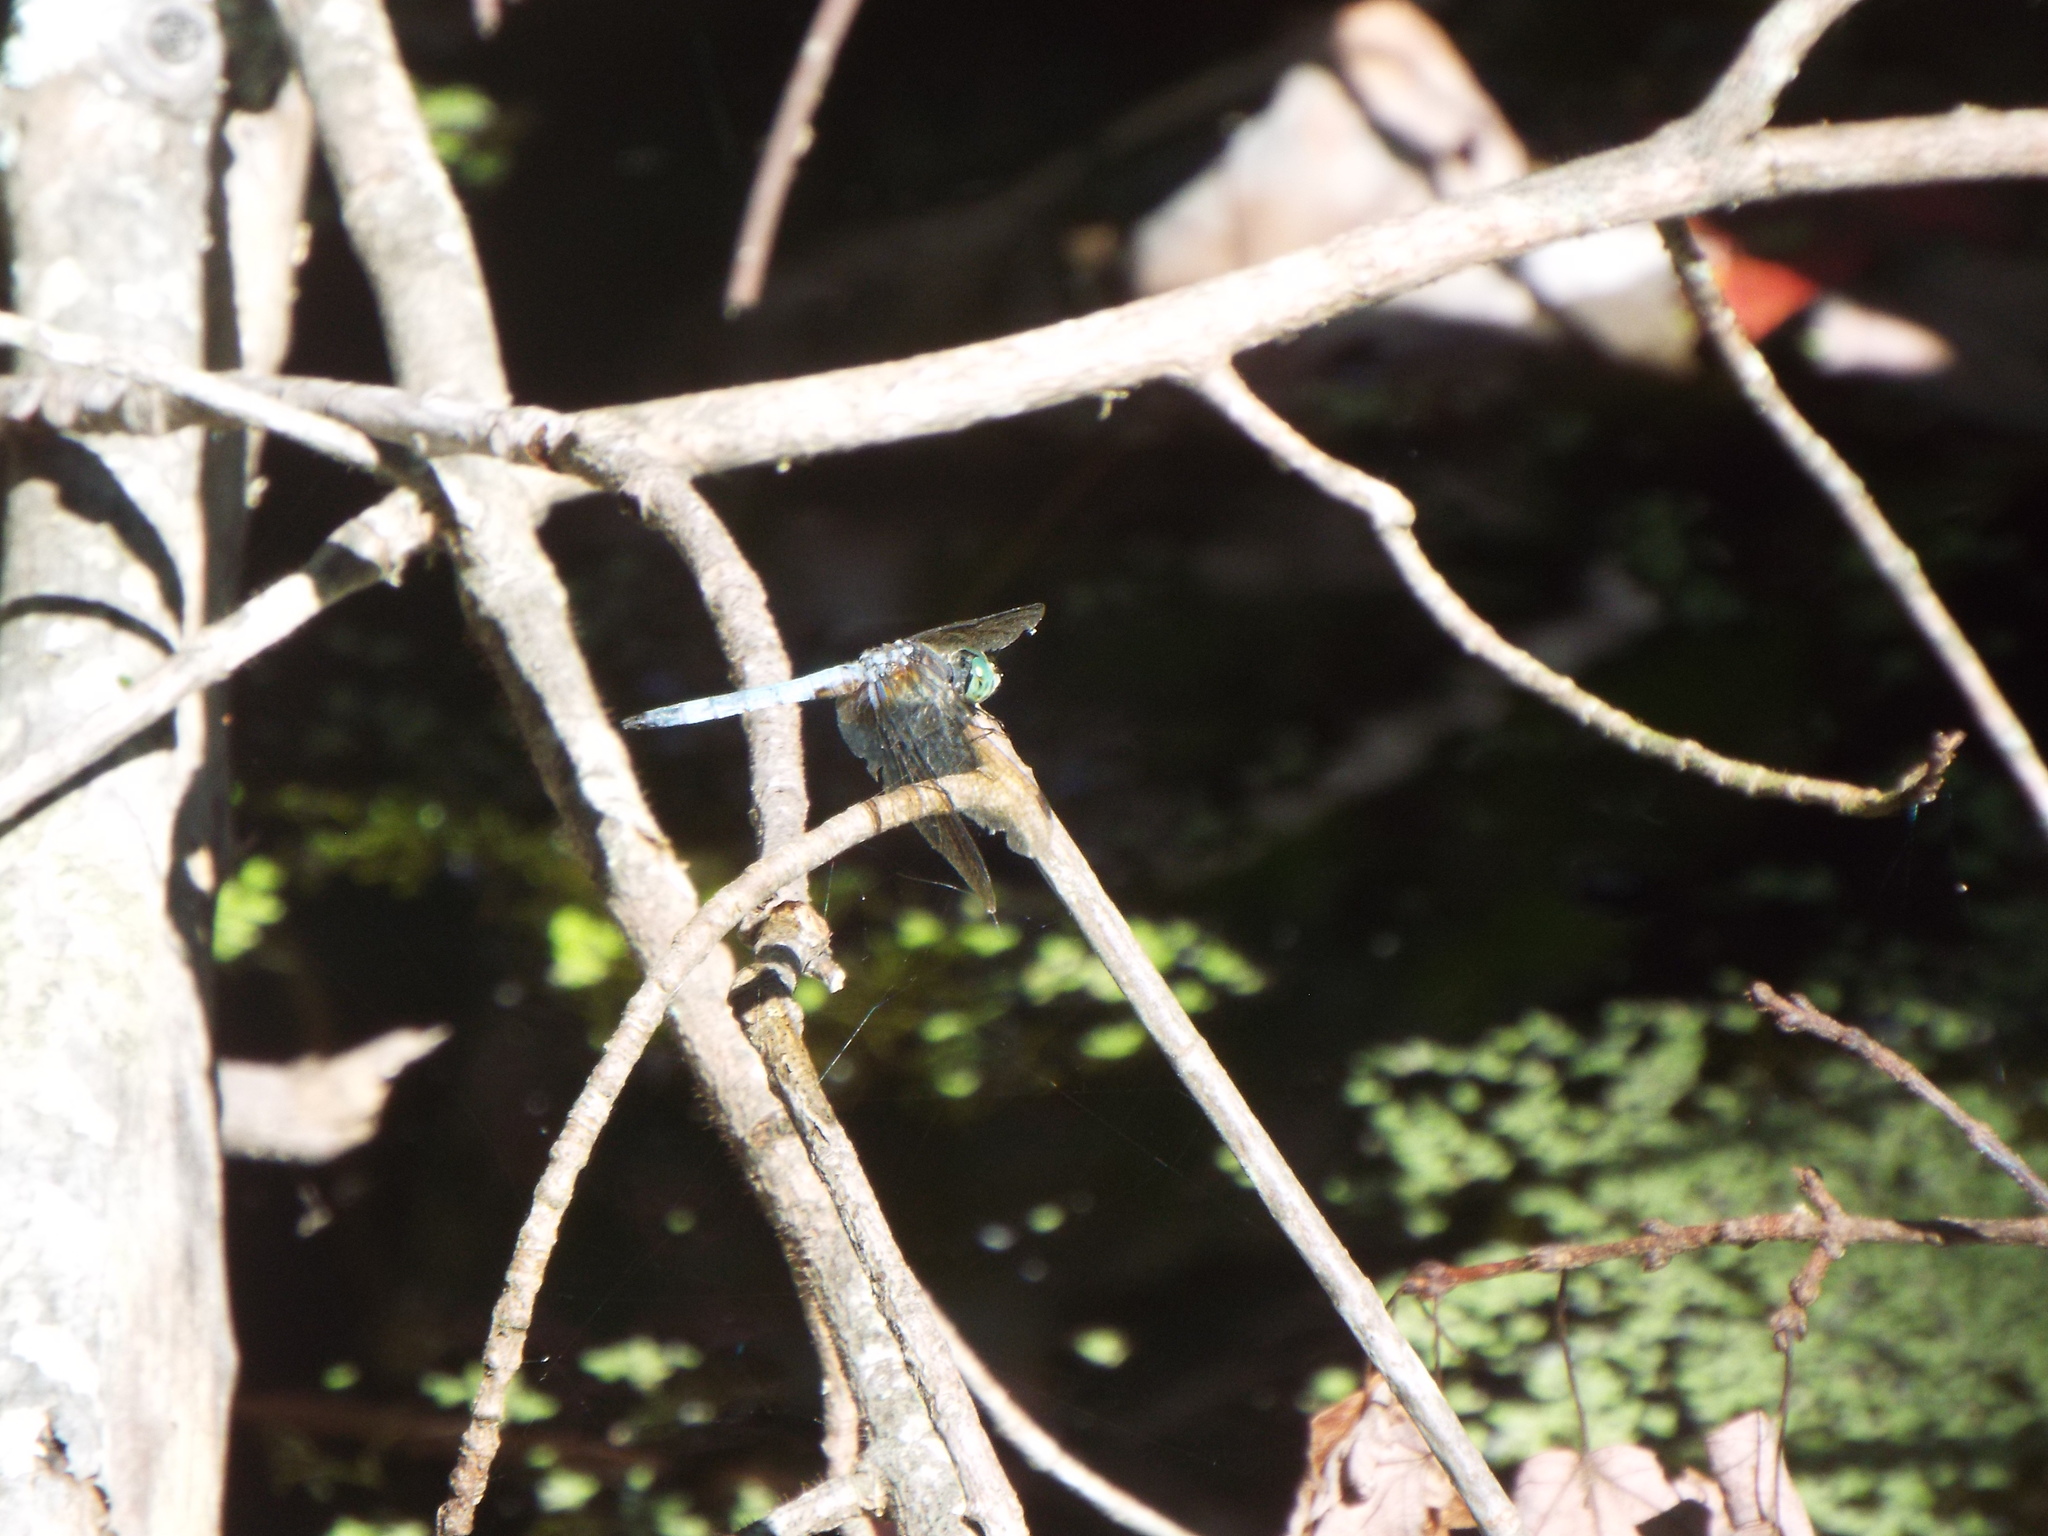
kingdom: Animalia
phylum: Arthropoda
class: Insecta
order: Odonata
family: Libellulidae
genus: Pachydiplax
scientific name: Pachydiplax longipennis
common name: Blue dasher
